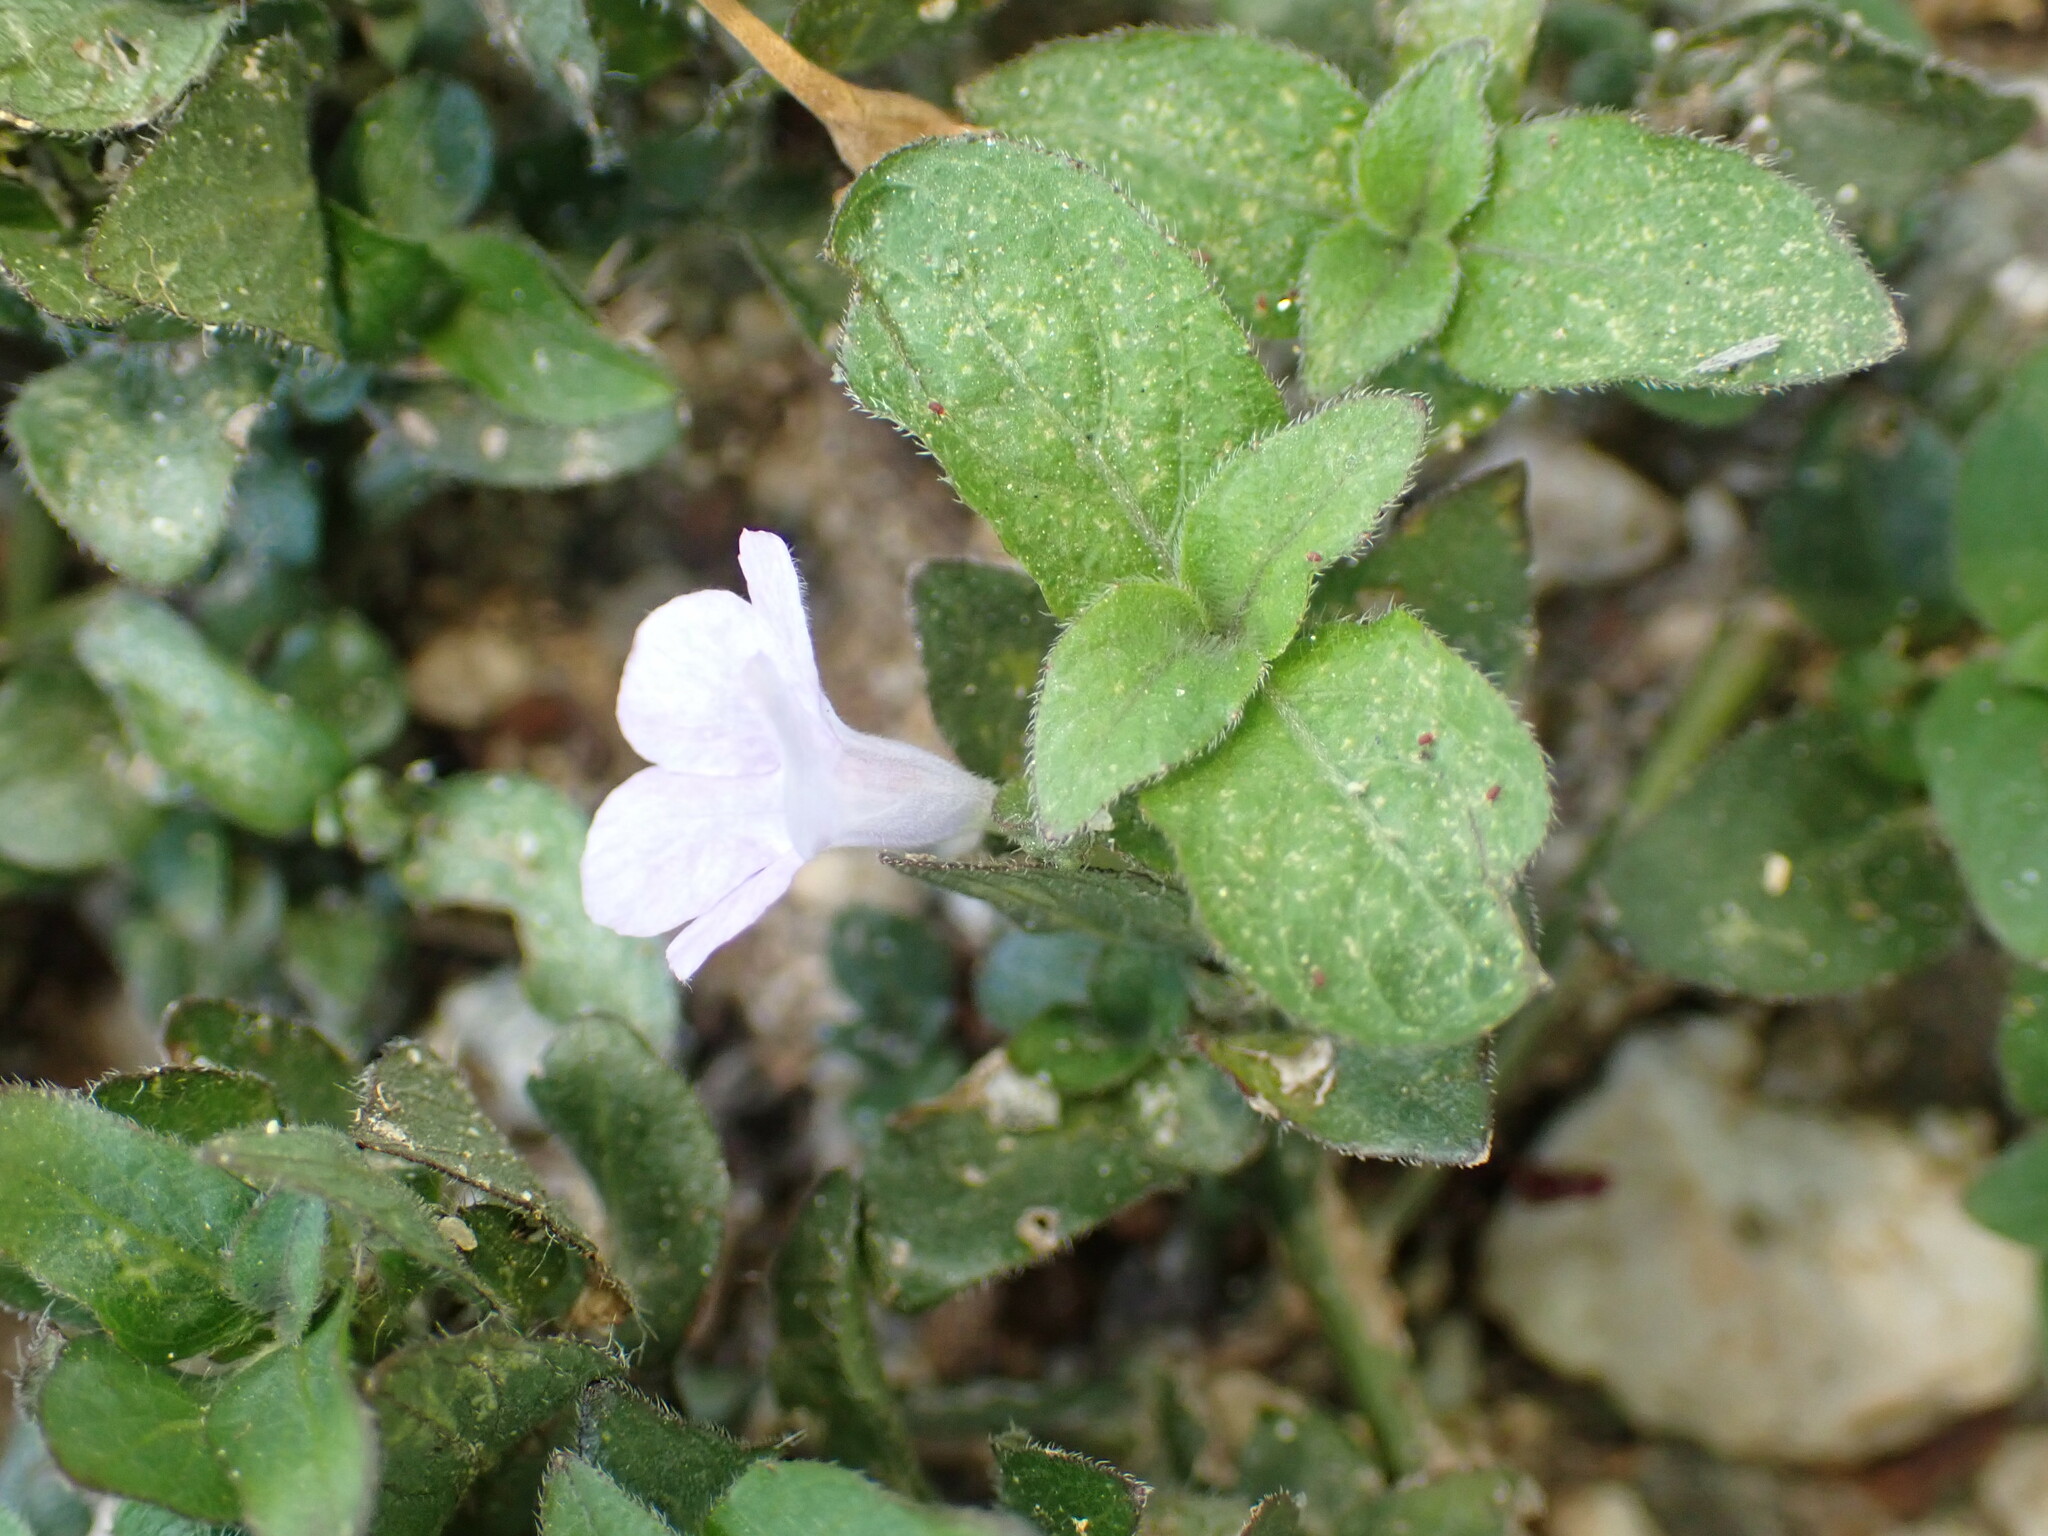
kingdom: Plantae
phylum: Tracheophyta
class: Magnoliopsida
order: Lamiales
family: Acanthaceae
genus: Ruellia
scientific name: Ruellia blechum
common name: Browne's blechum
